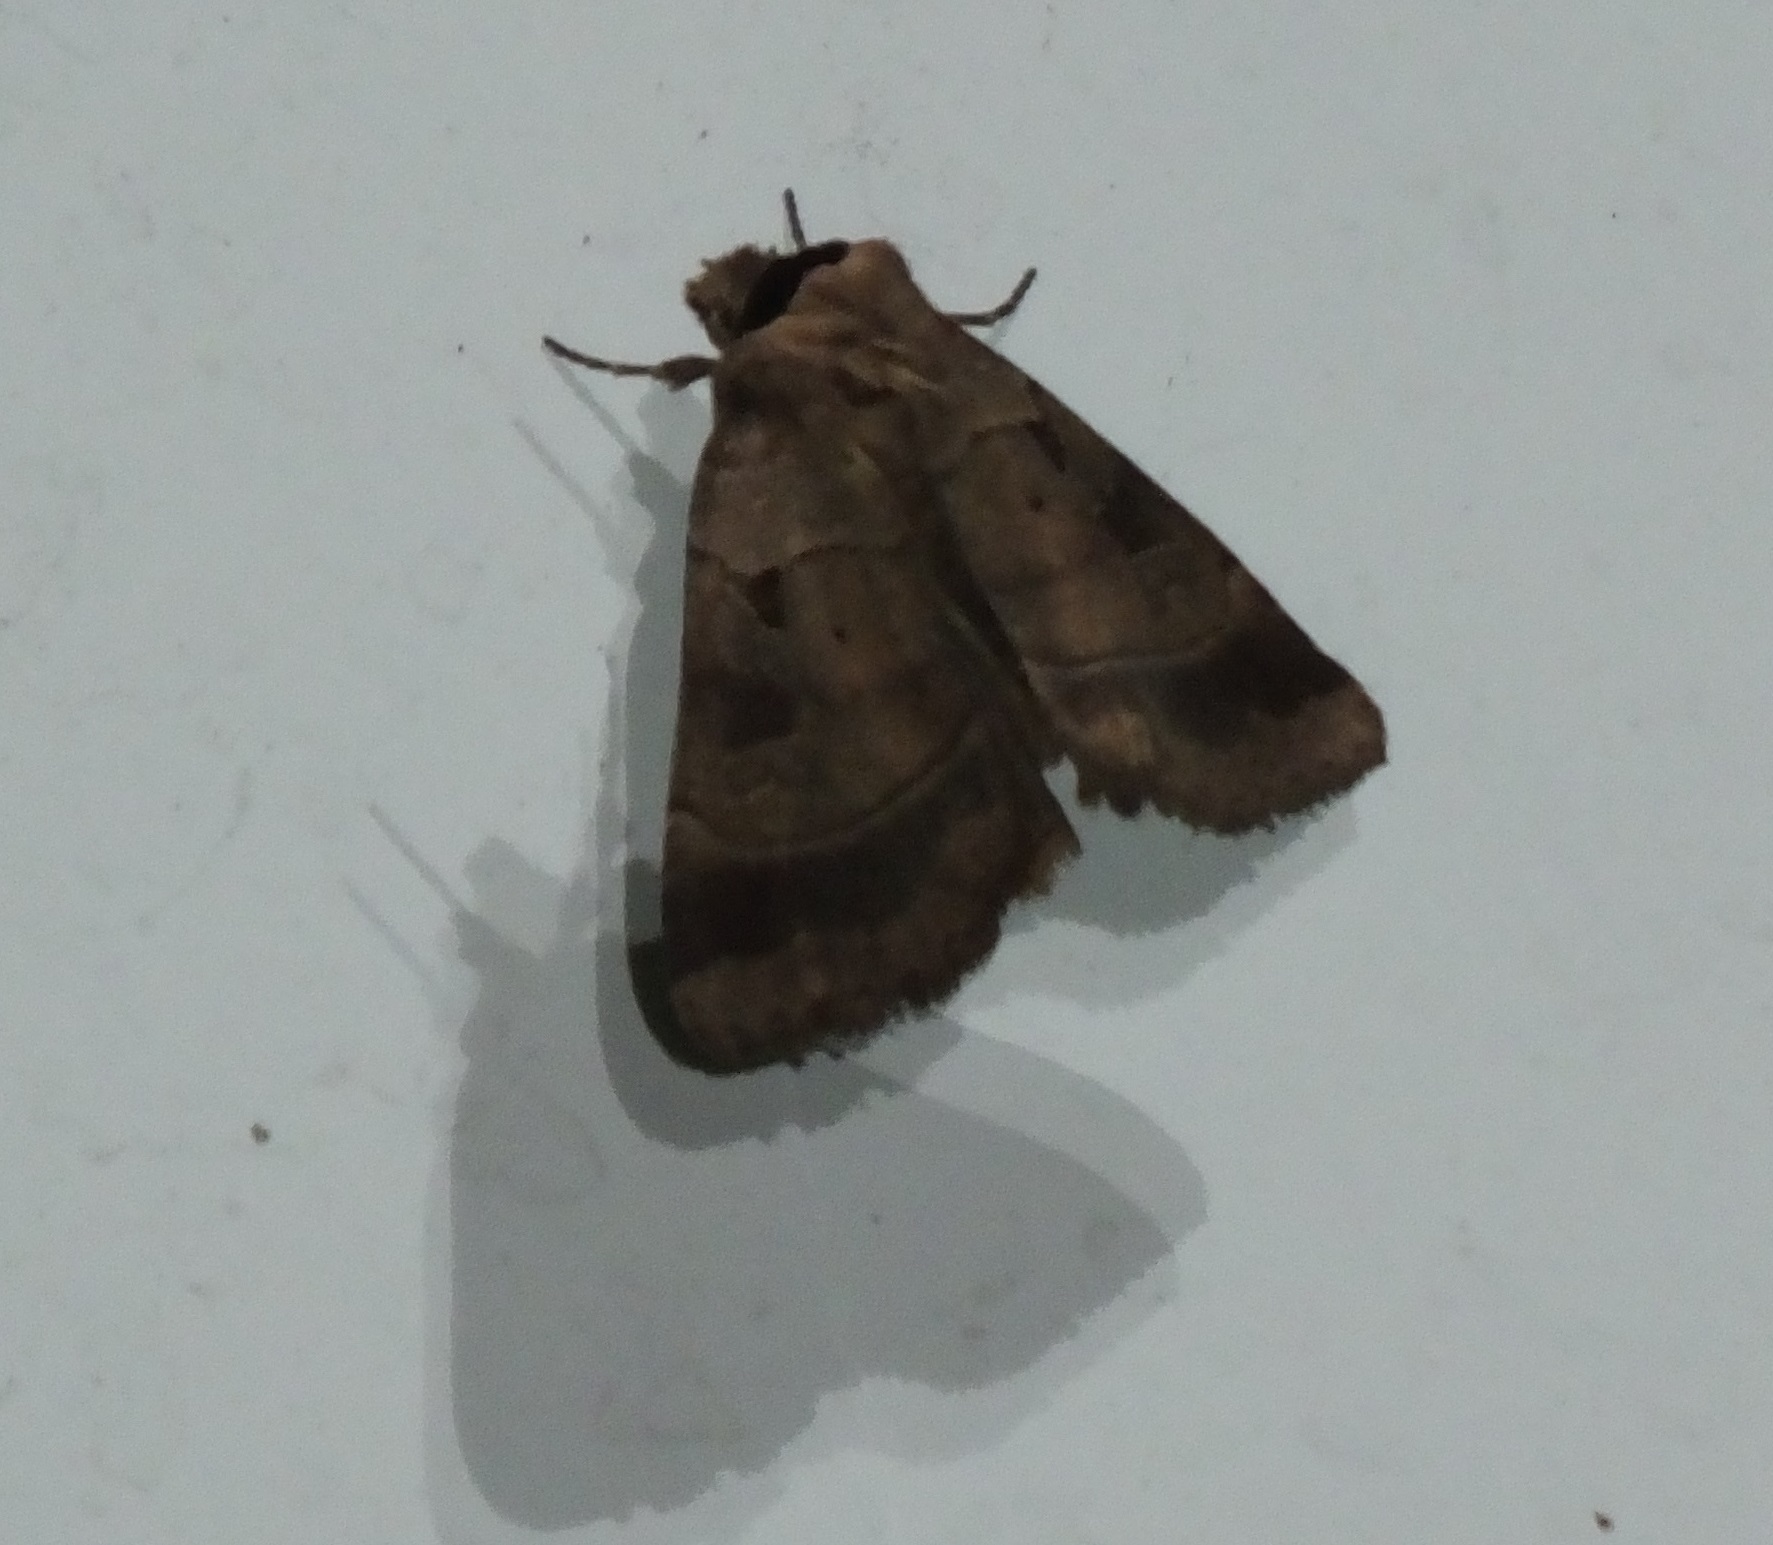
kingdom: Animalia
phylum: Arthropoda
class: Insecta
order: Lepidoptera
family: Noctuidae
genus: Agnorisma
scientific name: Agnorisma badinodis
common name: Pale-banded dart
